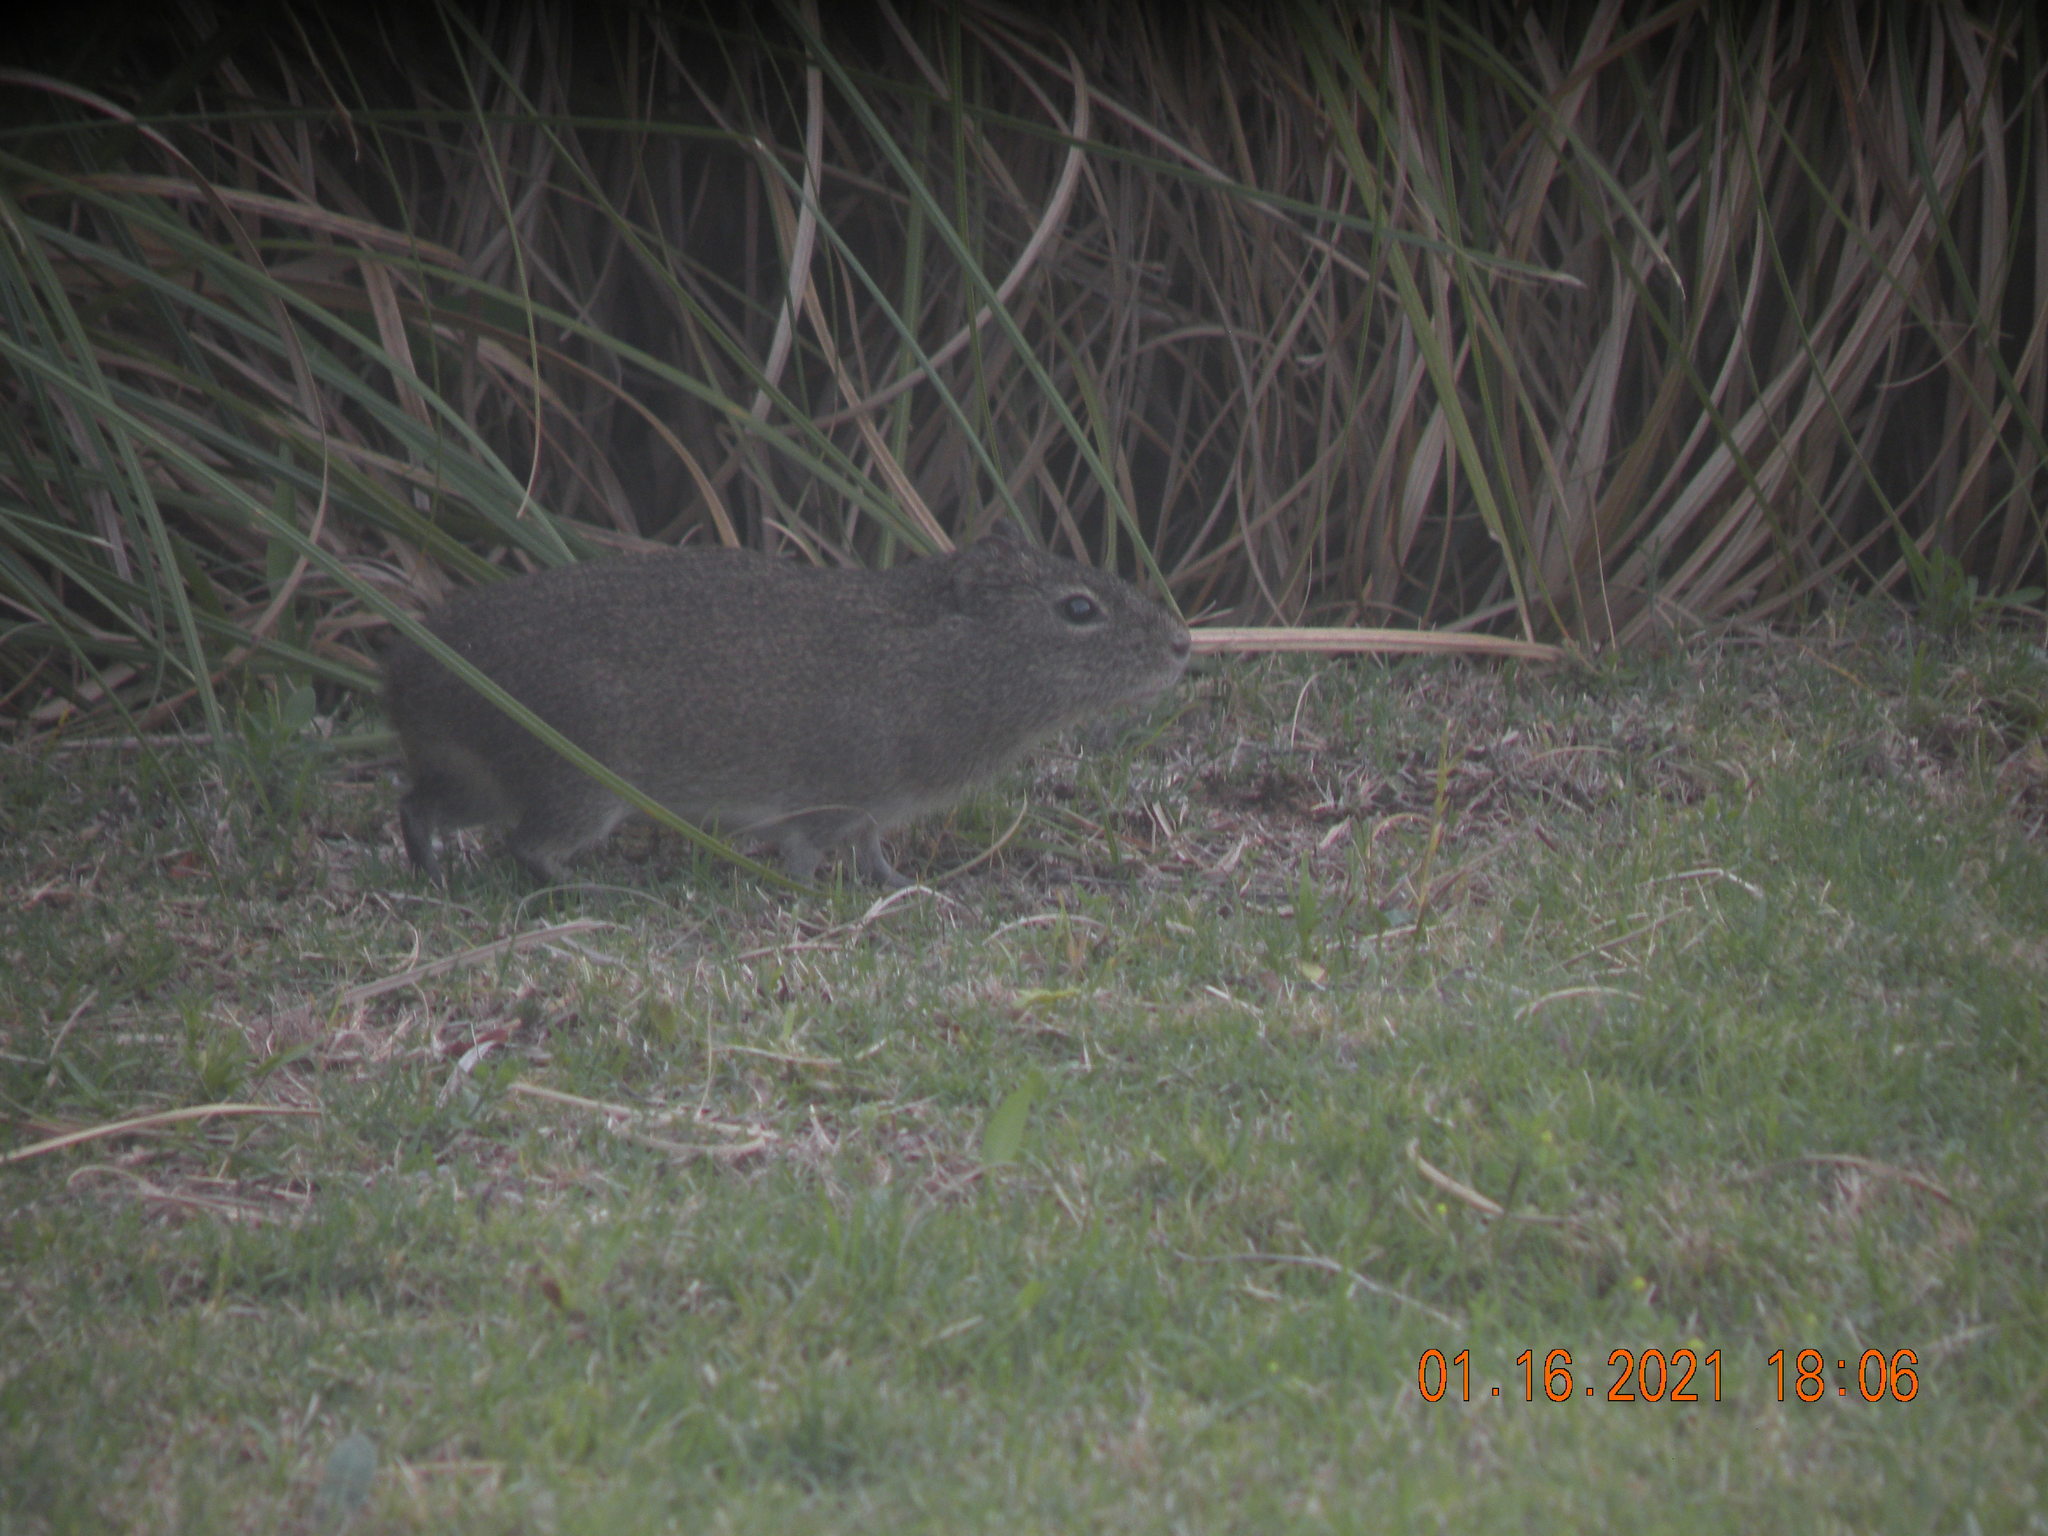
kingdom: Animalia
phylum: Chordata
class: Mammalia
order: Rodentia
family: Caviidae
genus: Cavia
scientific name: Cavia aperea
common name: Brazilian guinea pig
